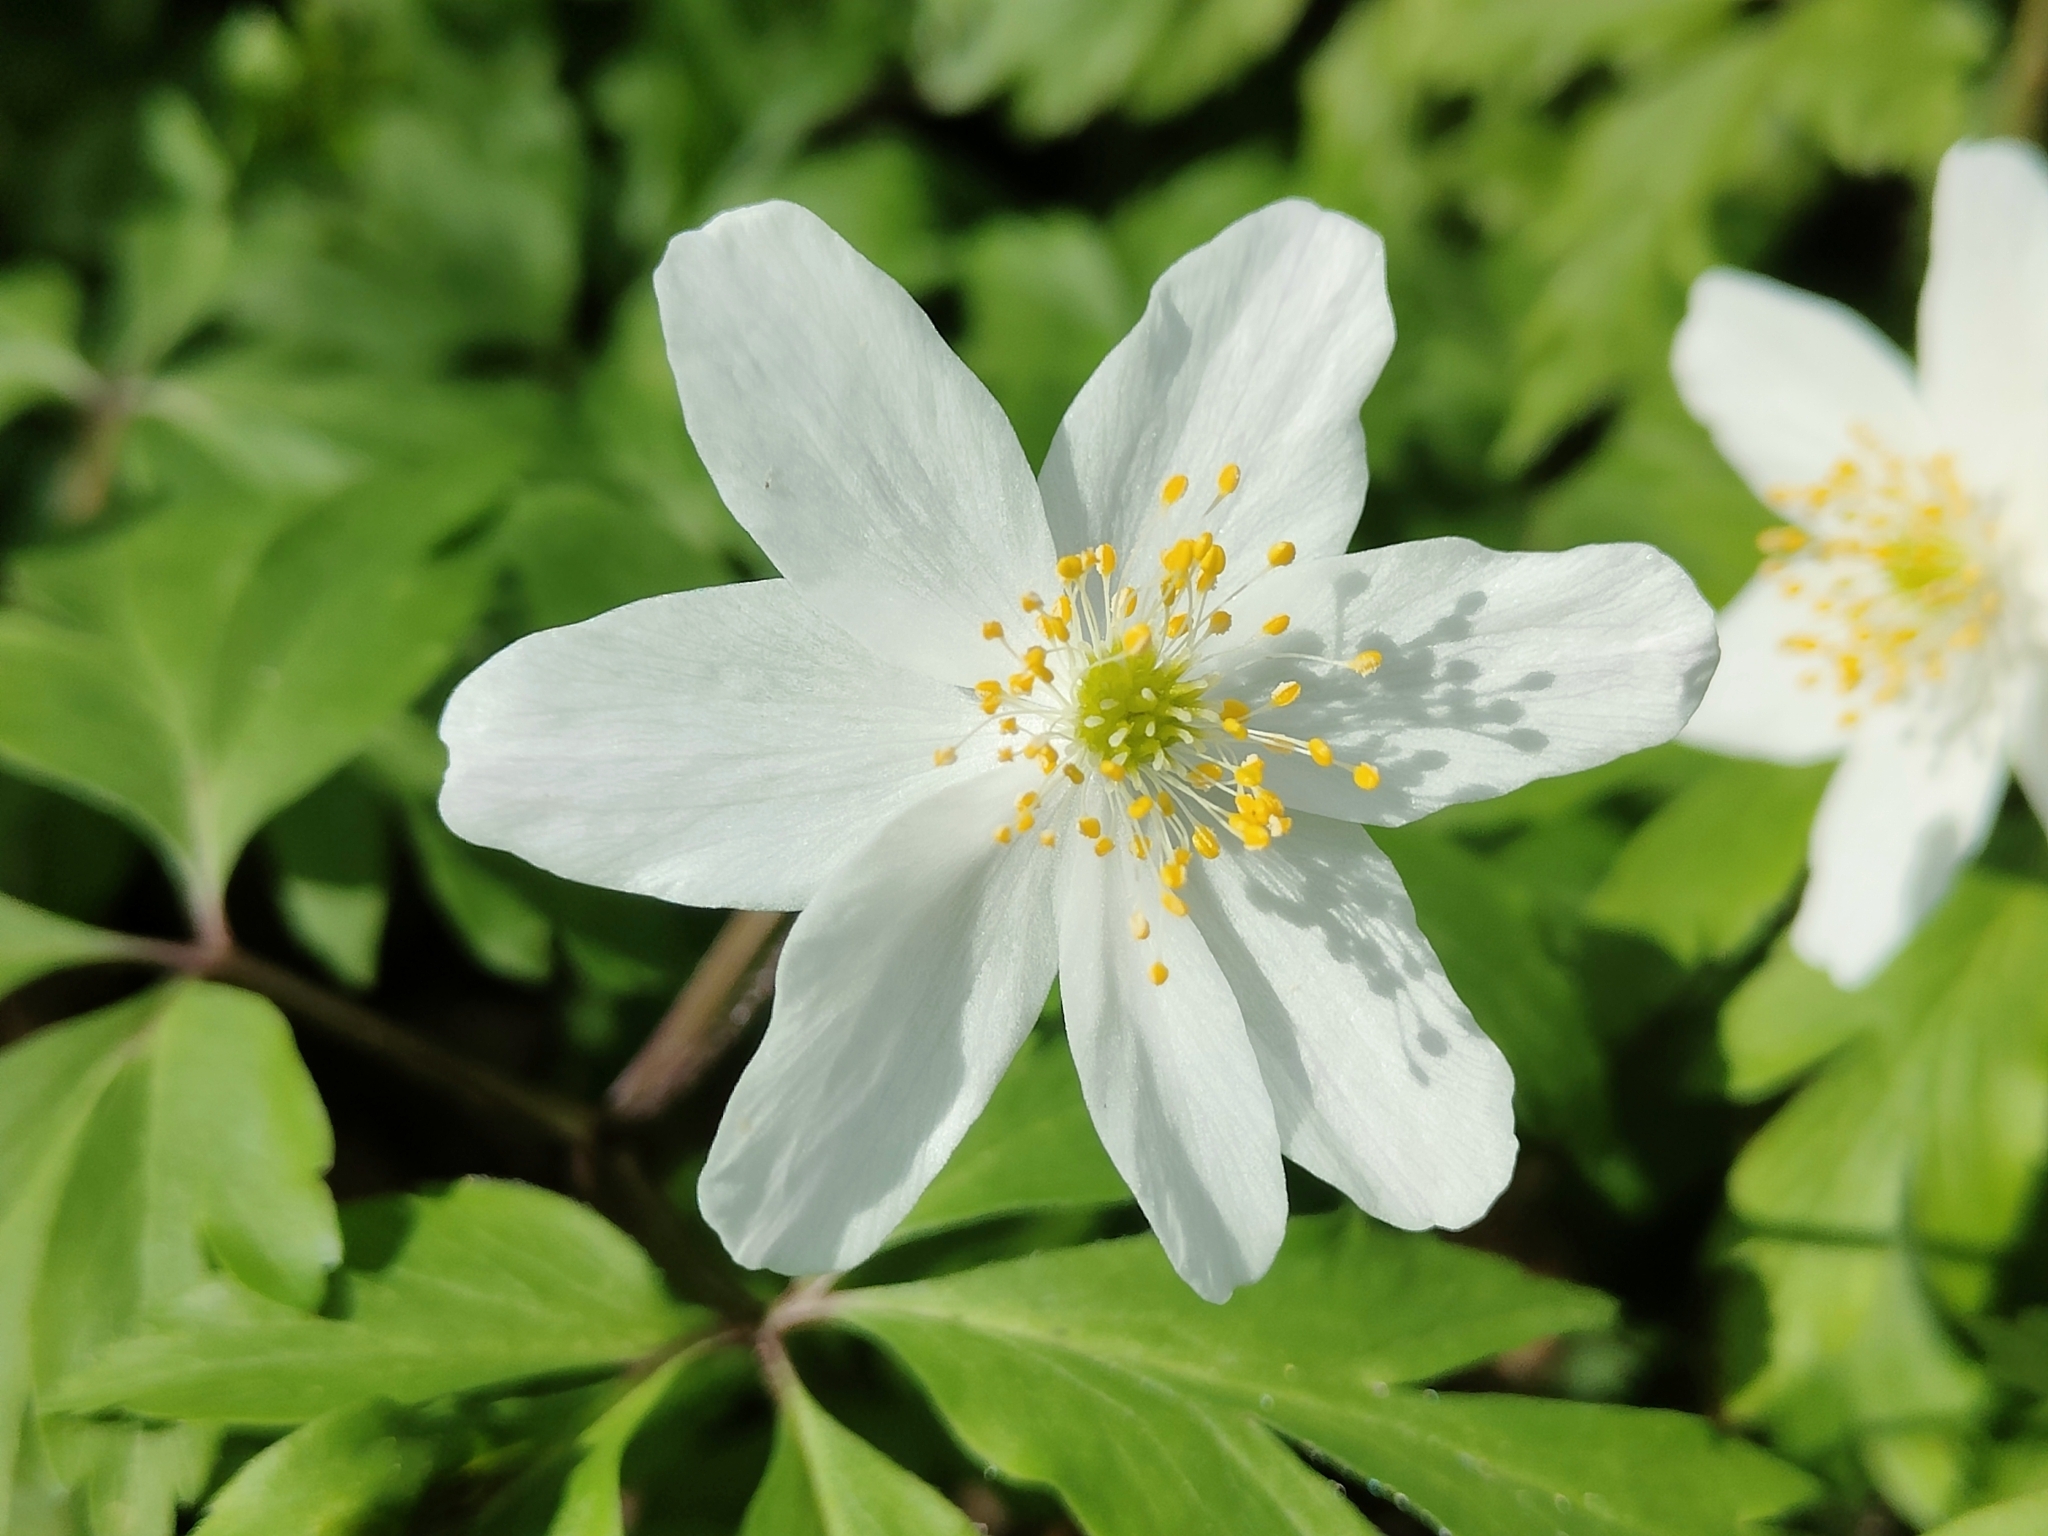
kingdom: Plantae
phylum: Tracheophyta
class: Magnoliopsida
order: Ranunculales
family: Ranunculaceae
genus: Anemone
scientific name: Anemone nemorosa
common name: Wood anemone
